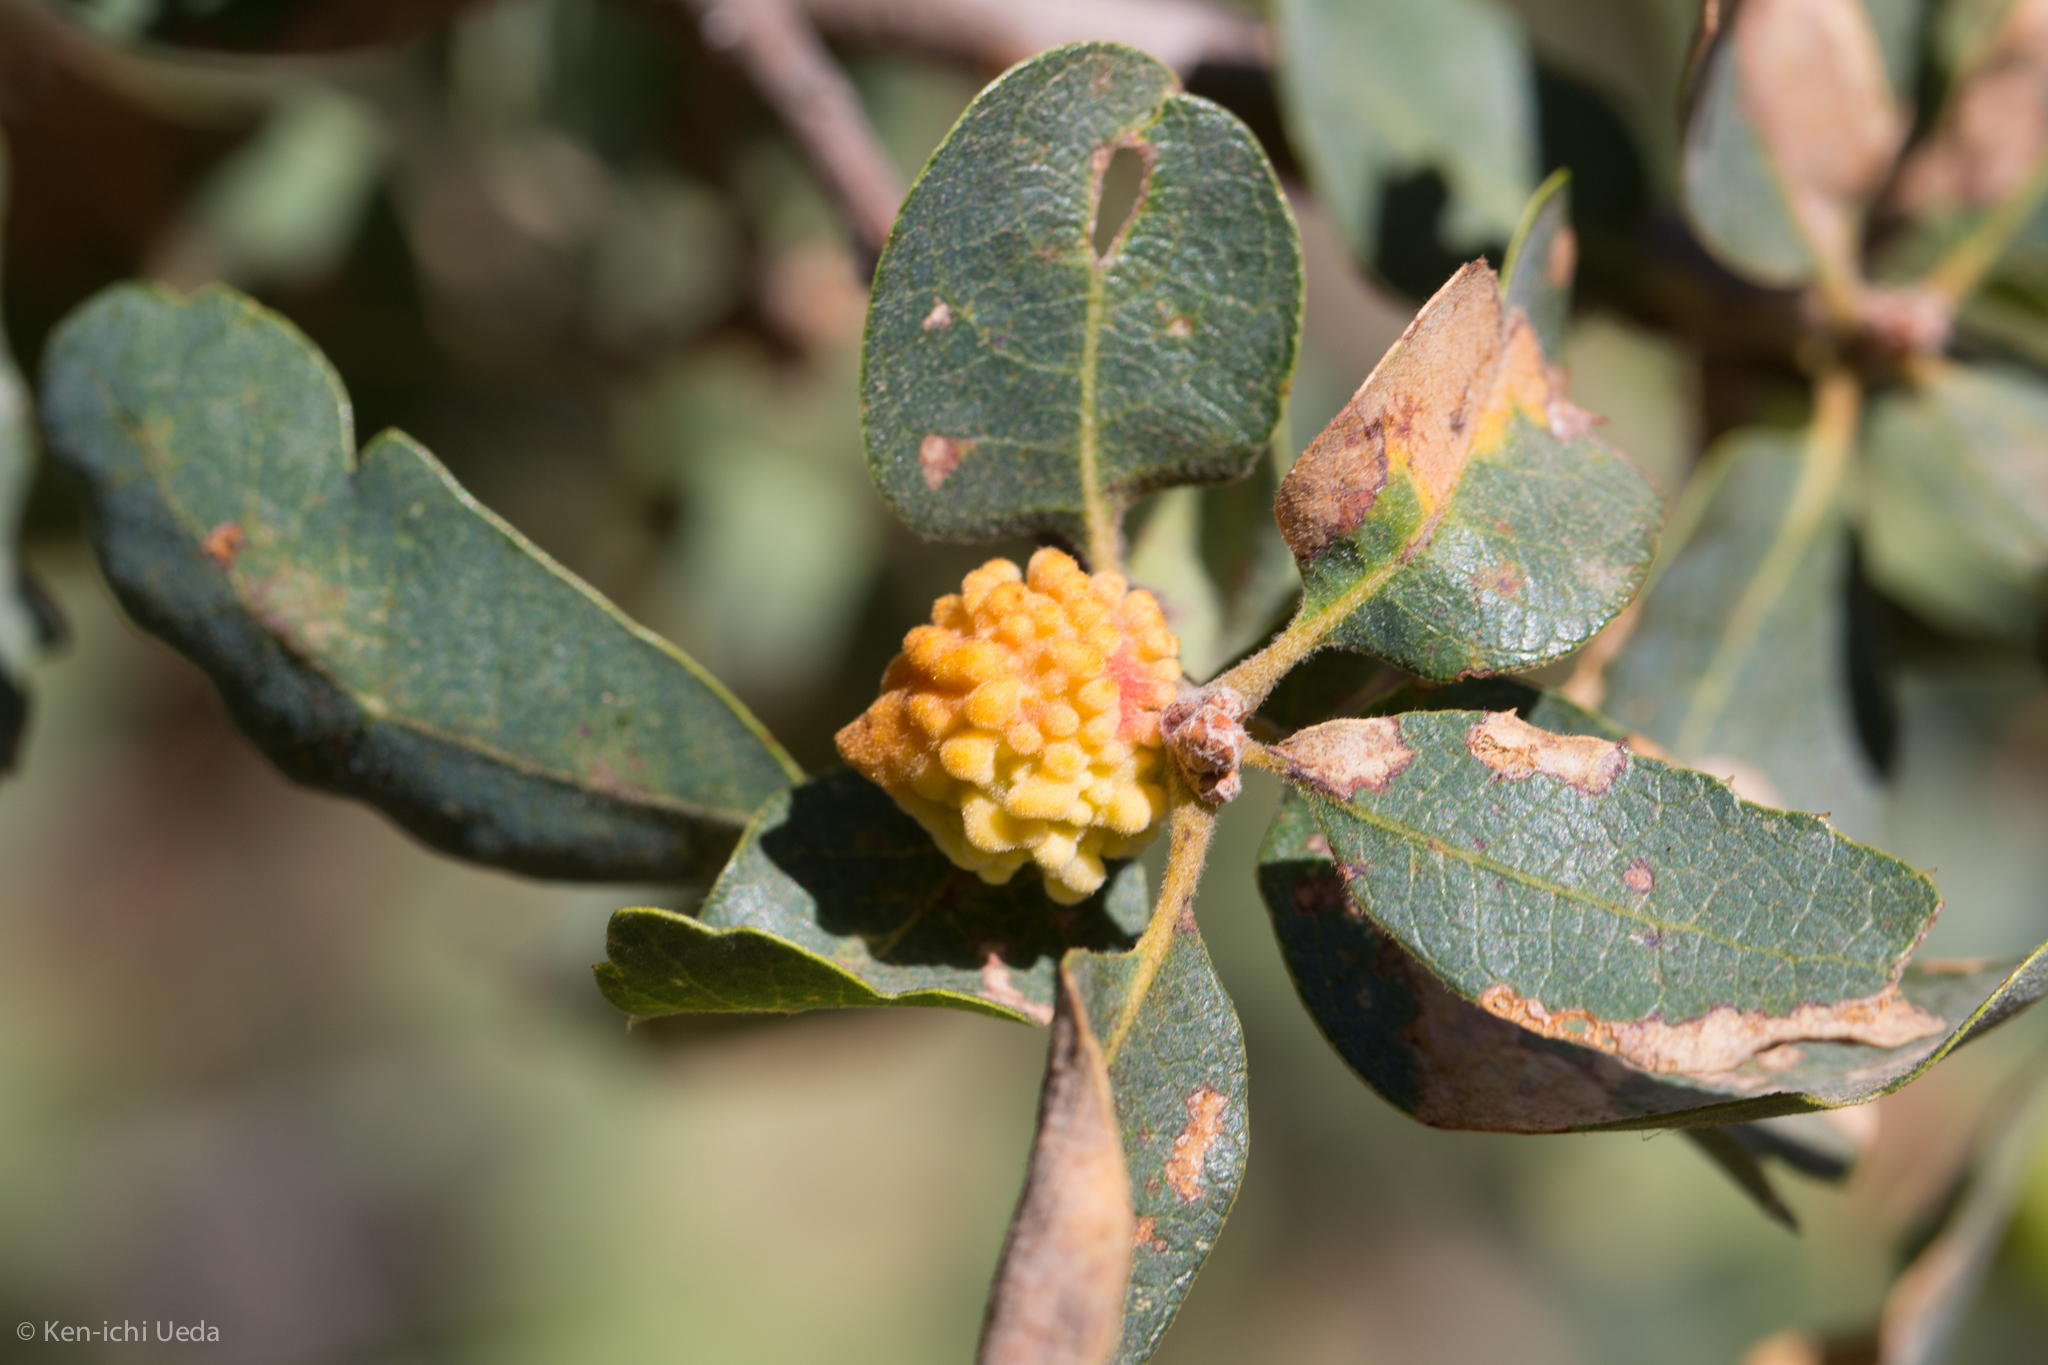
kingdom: Animalia
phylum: Arthropoda
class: Insecta
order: Hymenoptera
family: Cynipidae
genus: Burnettweldia
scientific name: Burnettweldia
